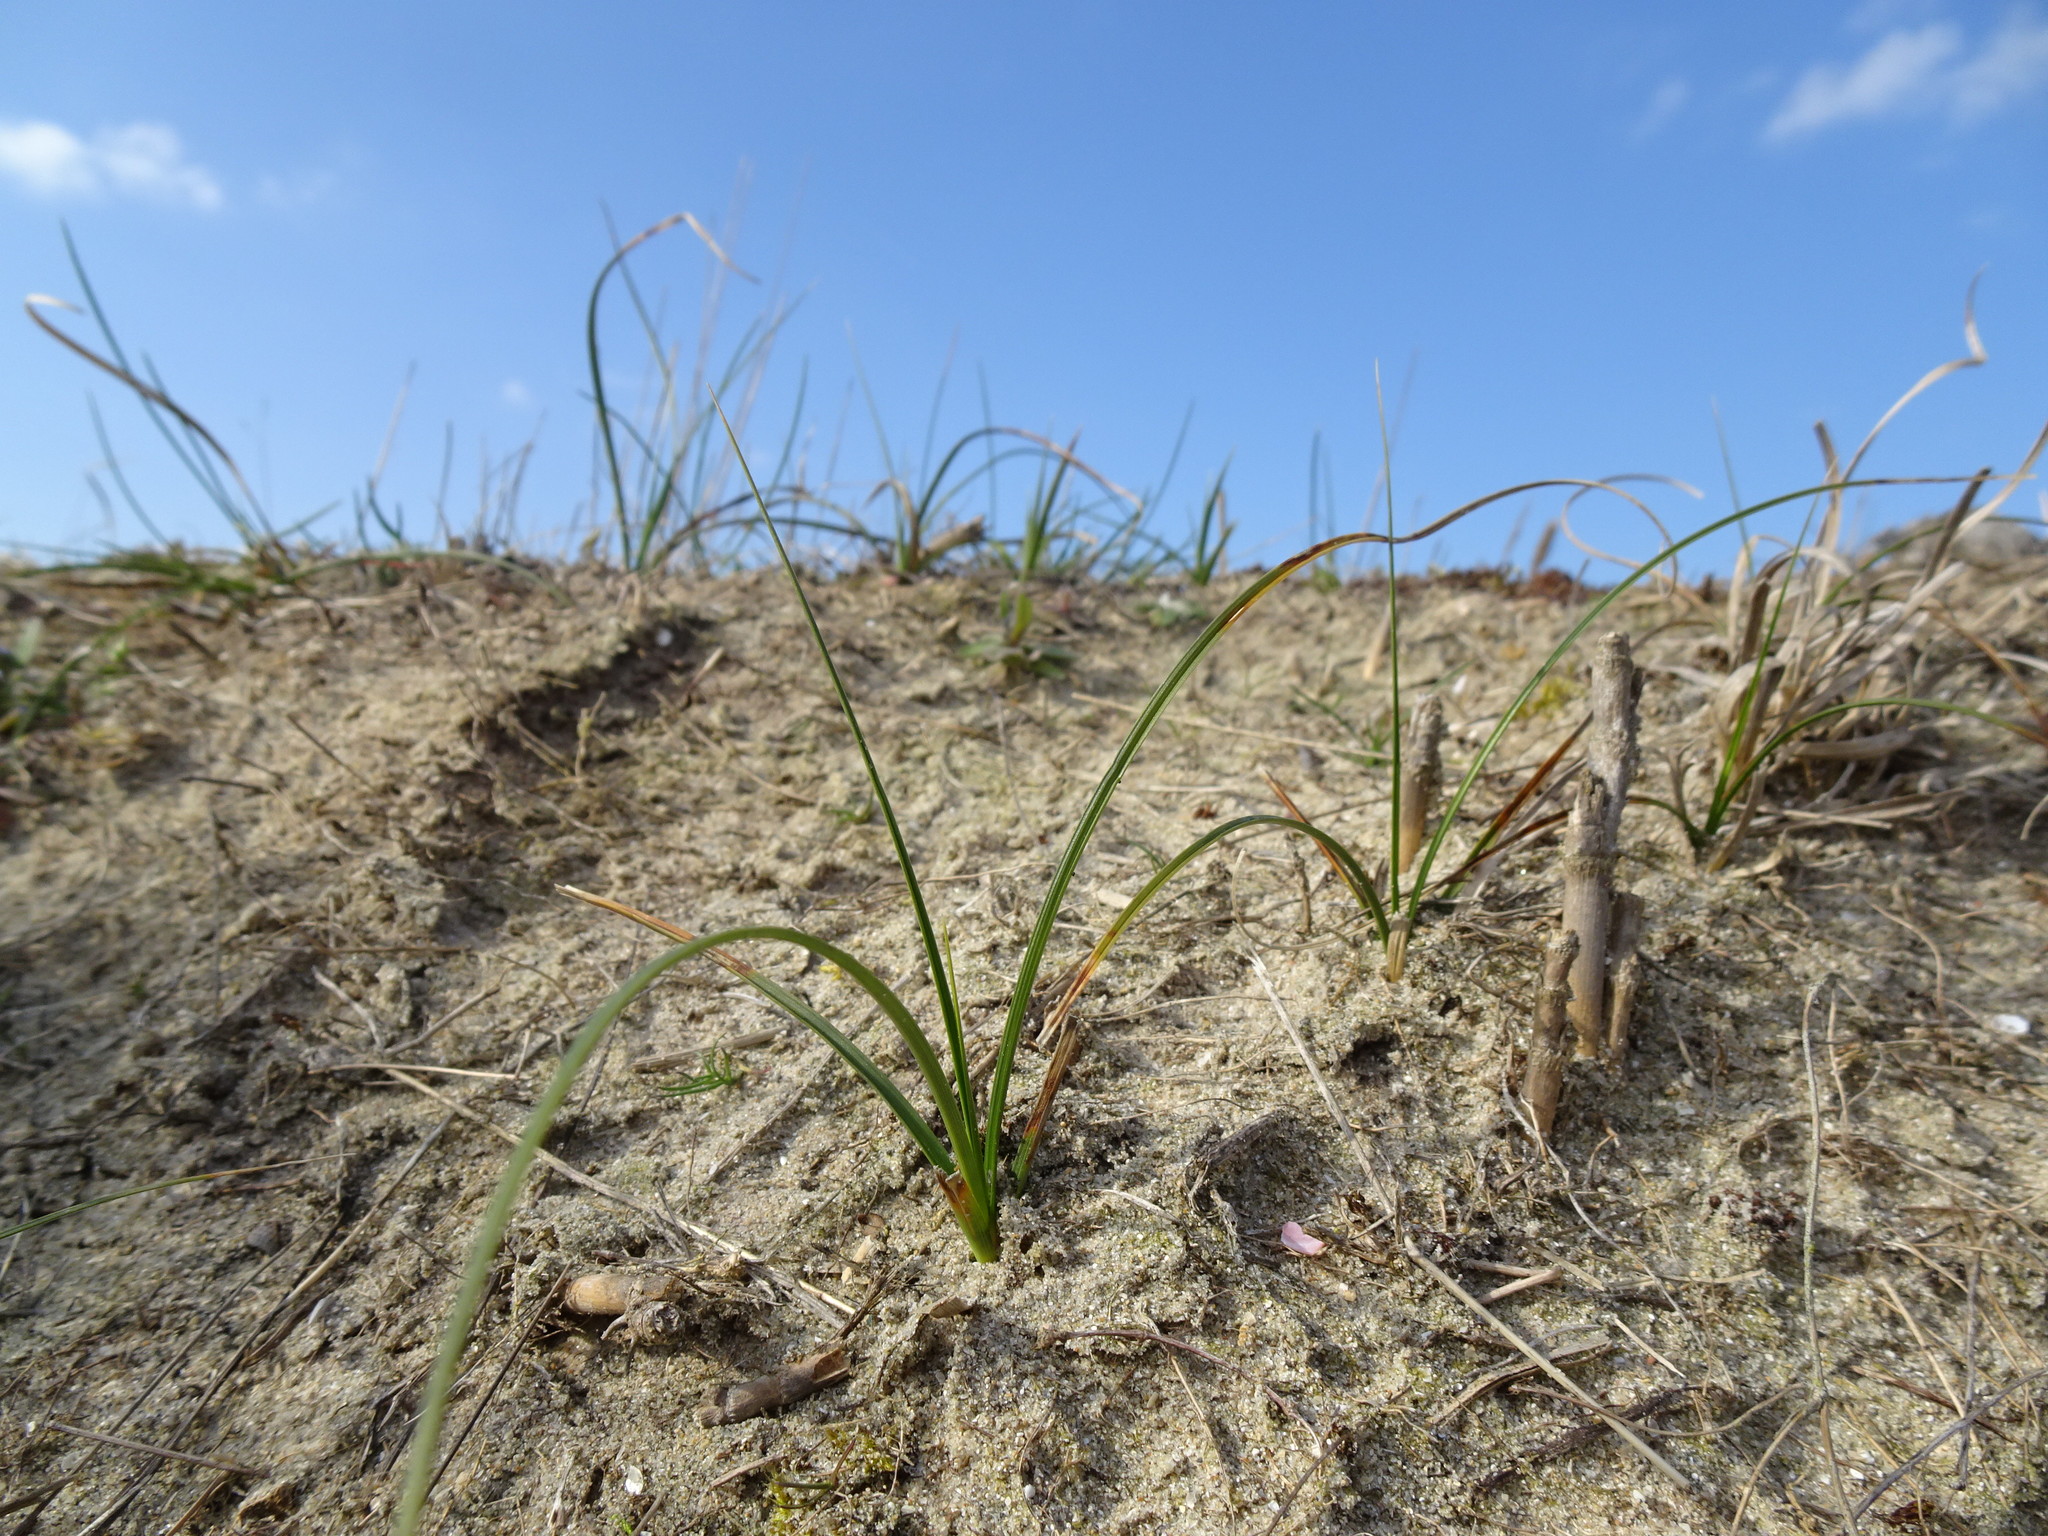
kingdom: Plantae
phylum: Tracheophyta
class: Liliopsida
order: Poales
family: Cyperaceae
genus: Carex
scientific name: Carex arenaria
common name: Sand sedge
